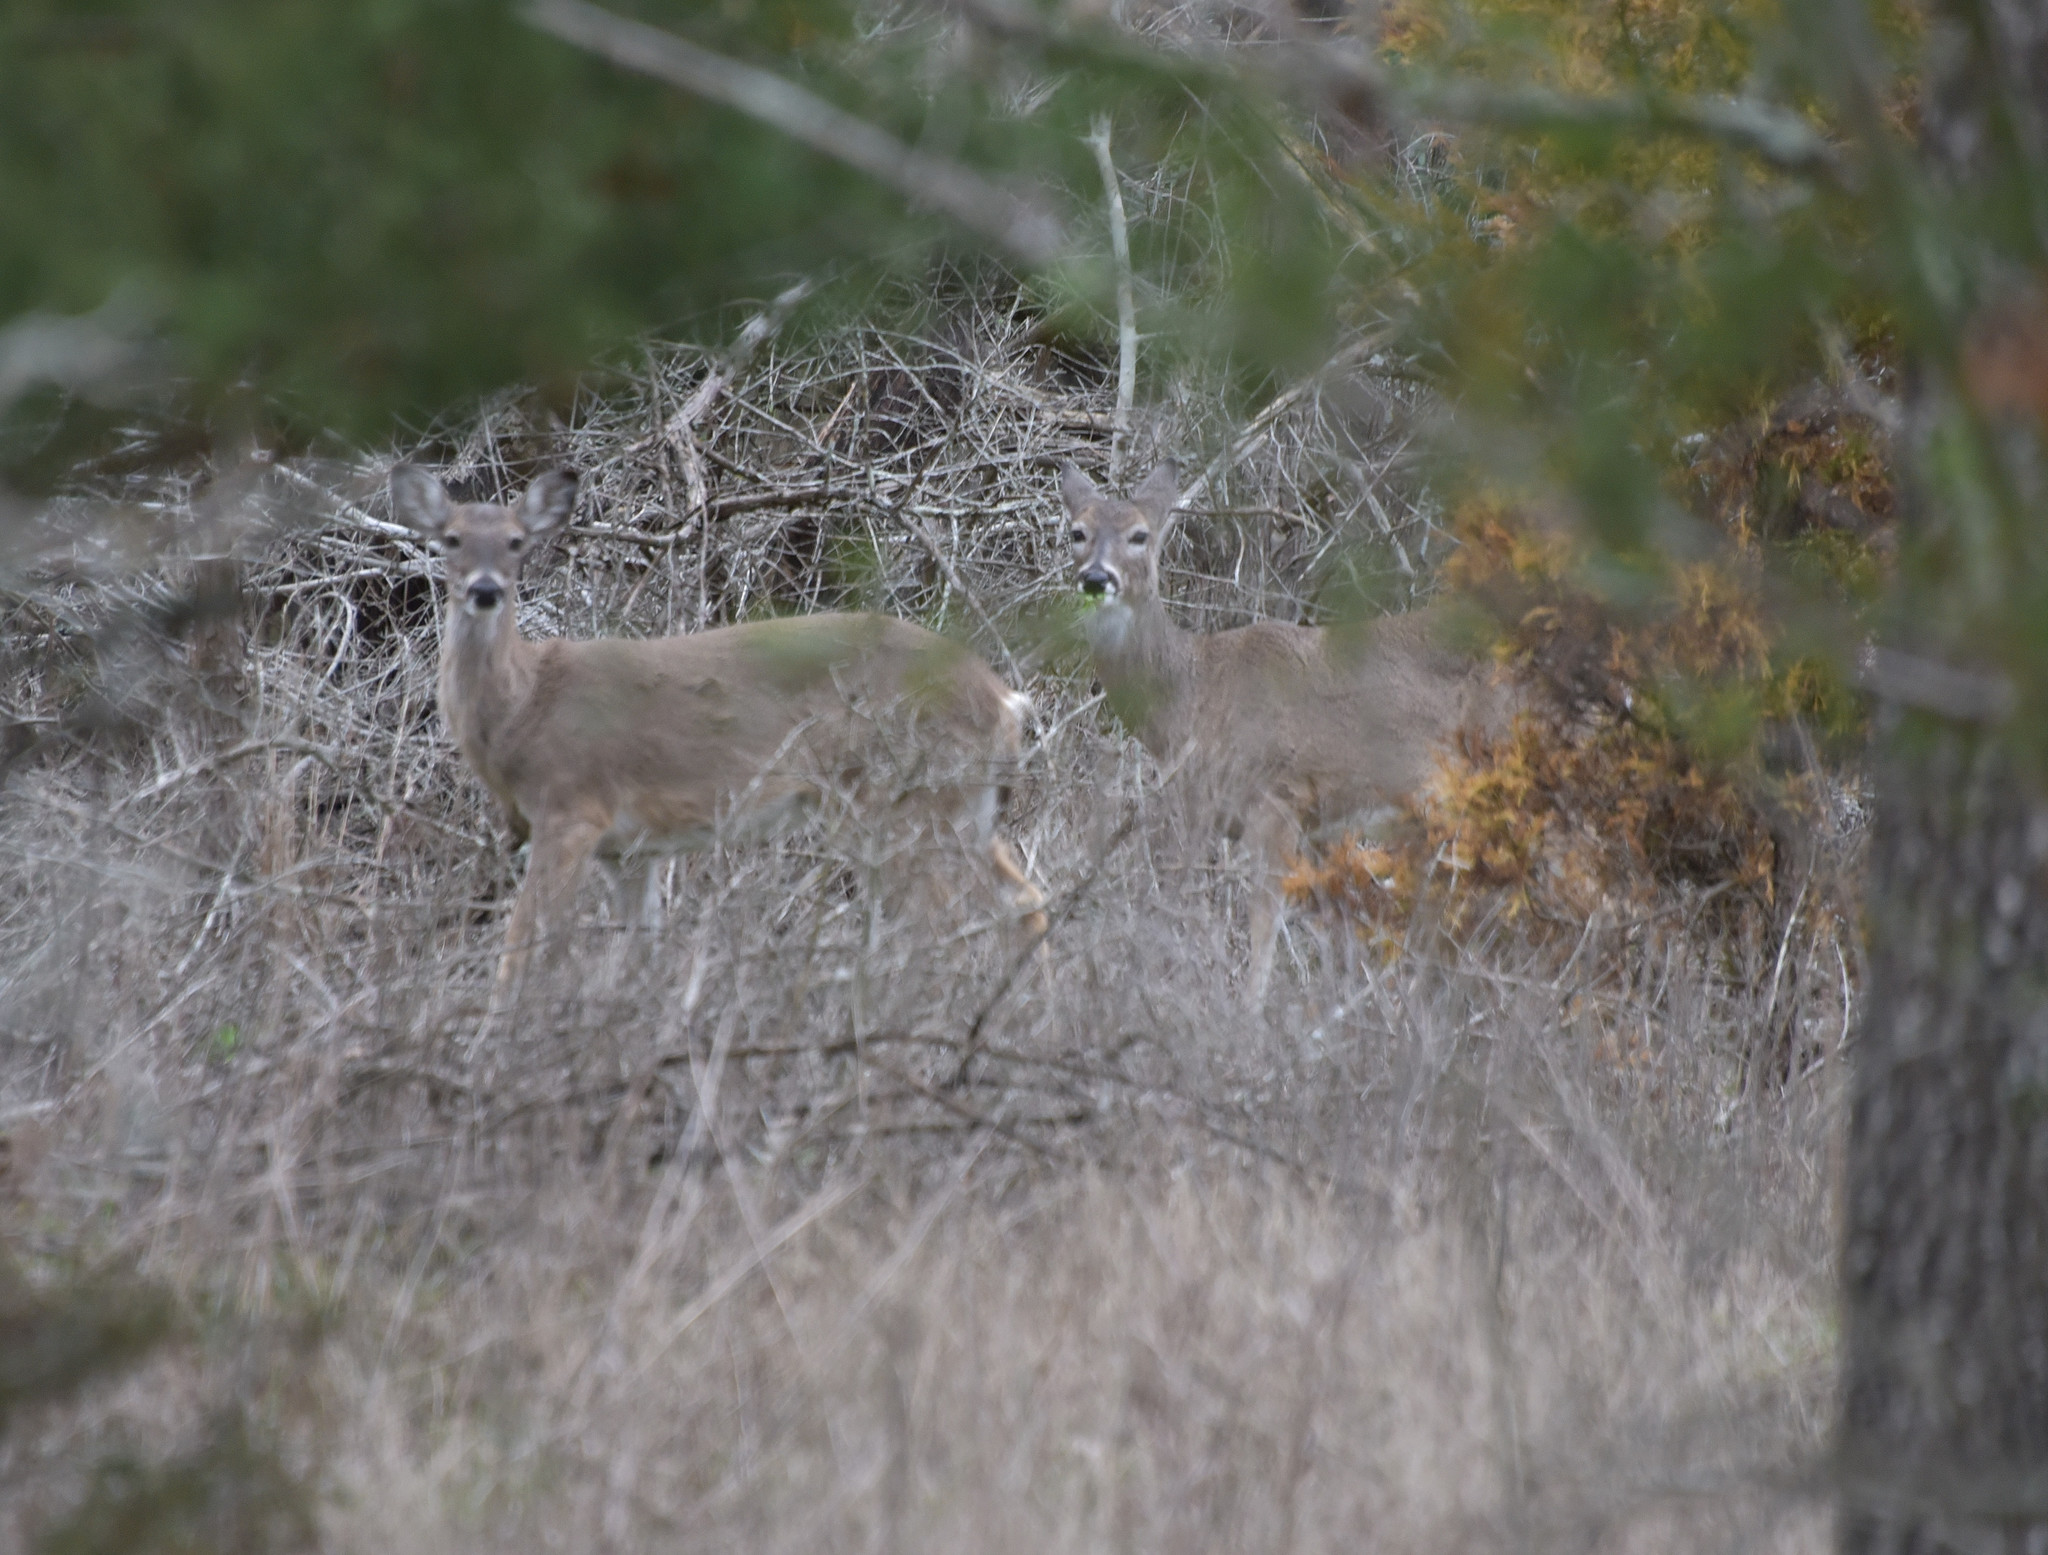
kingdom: Animalia
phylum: Chordata
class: Mammalia
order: Artiodactyla
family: Cervidae
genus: Odocoileus
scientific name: Odocoileus virginianus
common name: White-tailed deer
